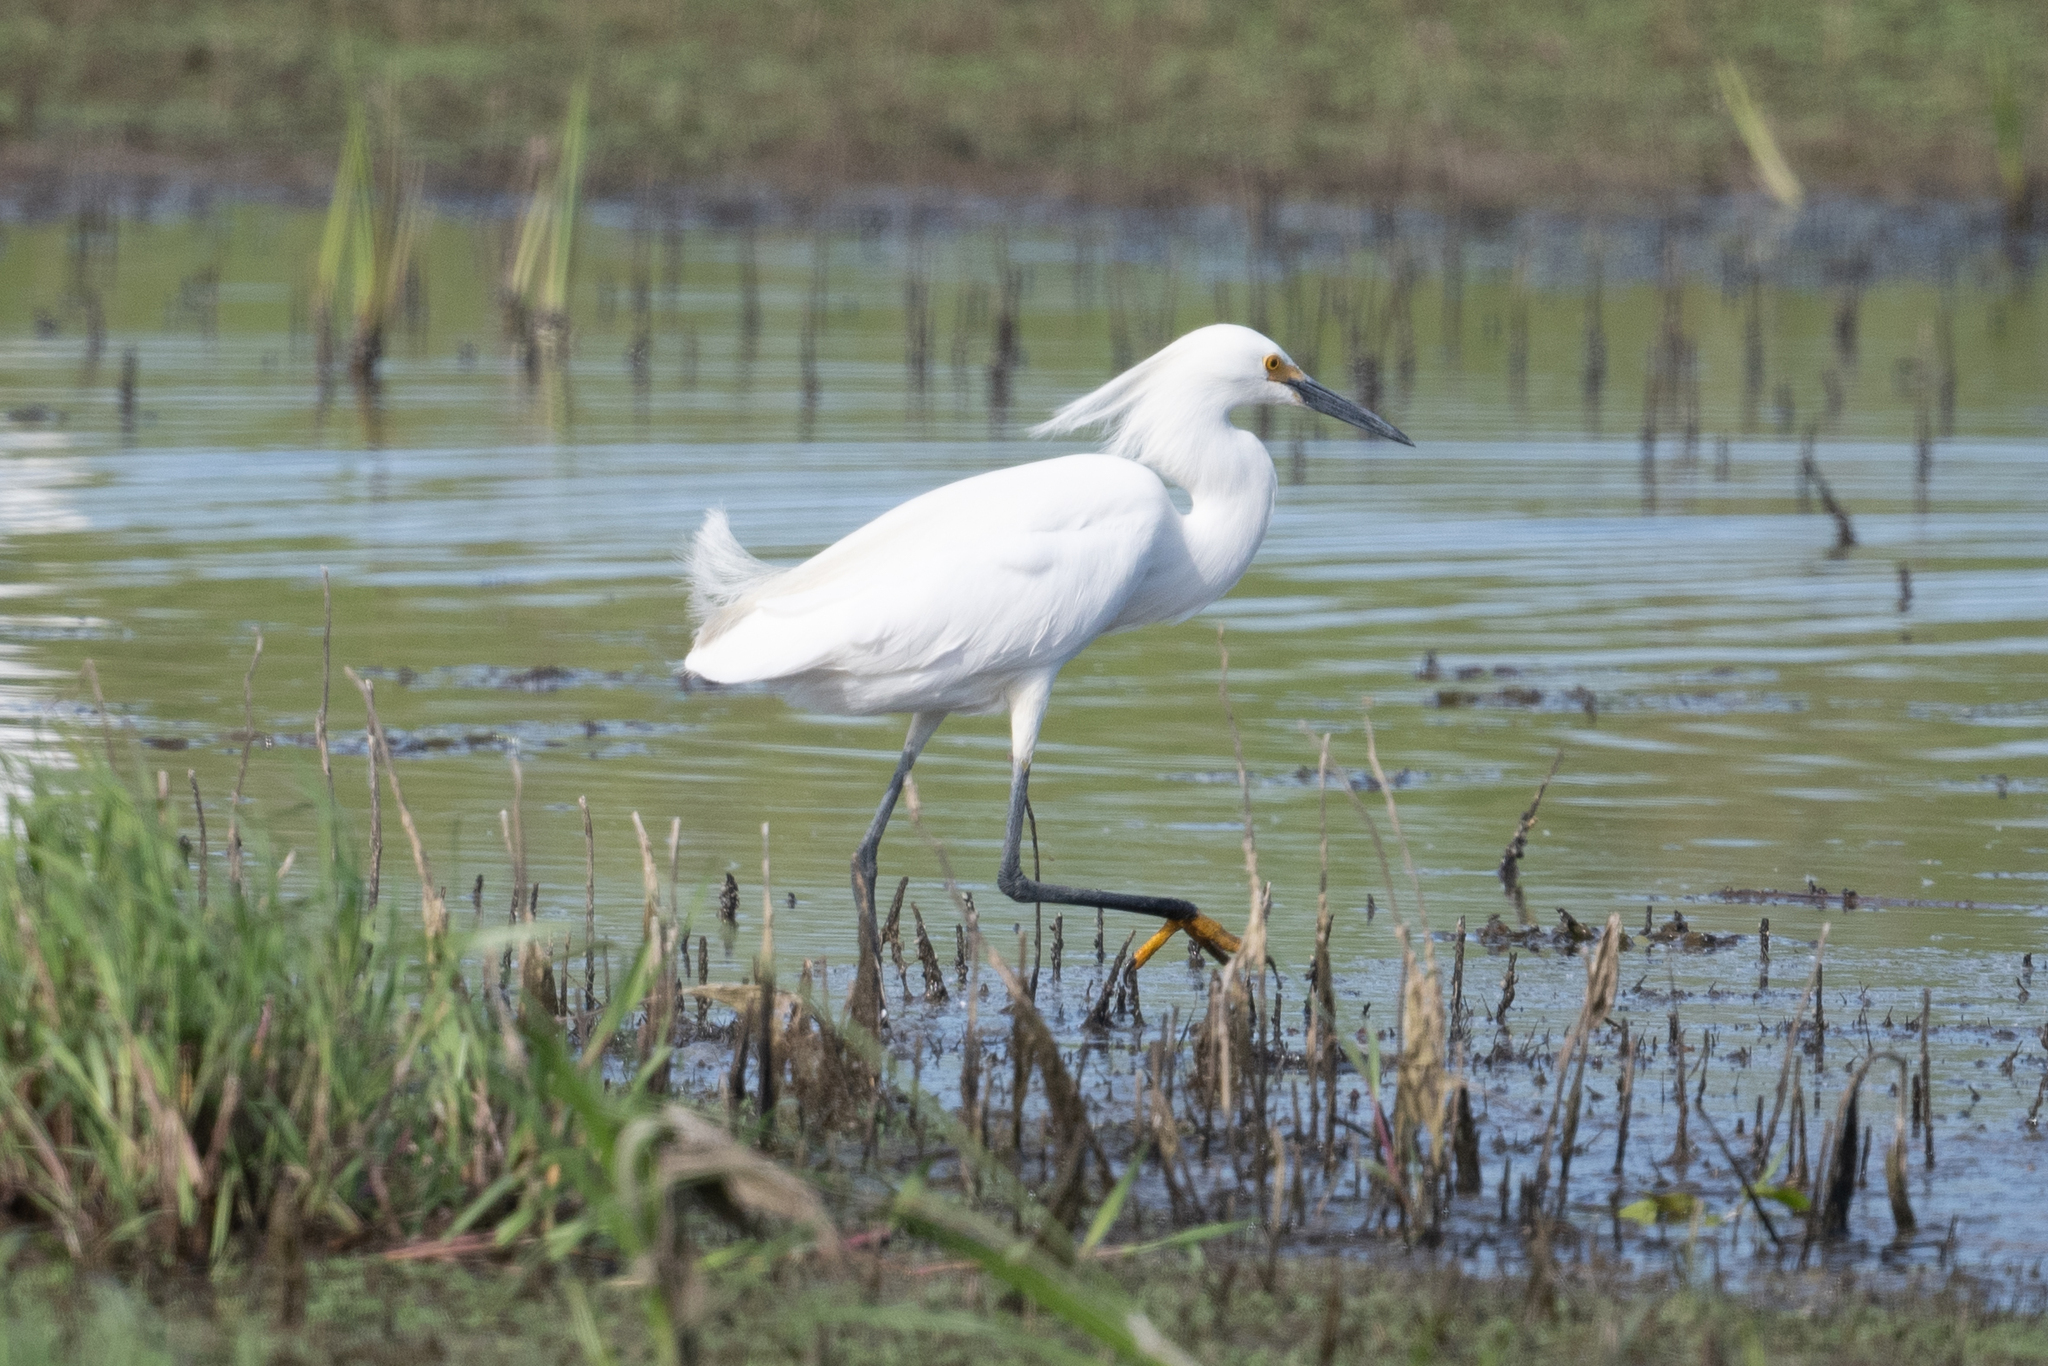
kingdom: Animalia
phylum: Chordata
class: Aves
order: Pelecaniformes
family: Ardeidae
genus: Egretta
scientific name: Egretta thula
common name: Snowy egret
